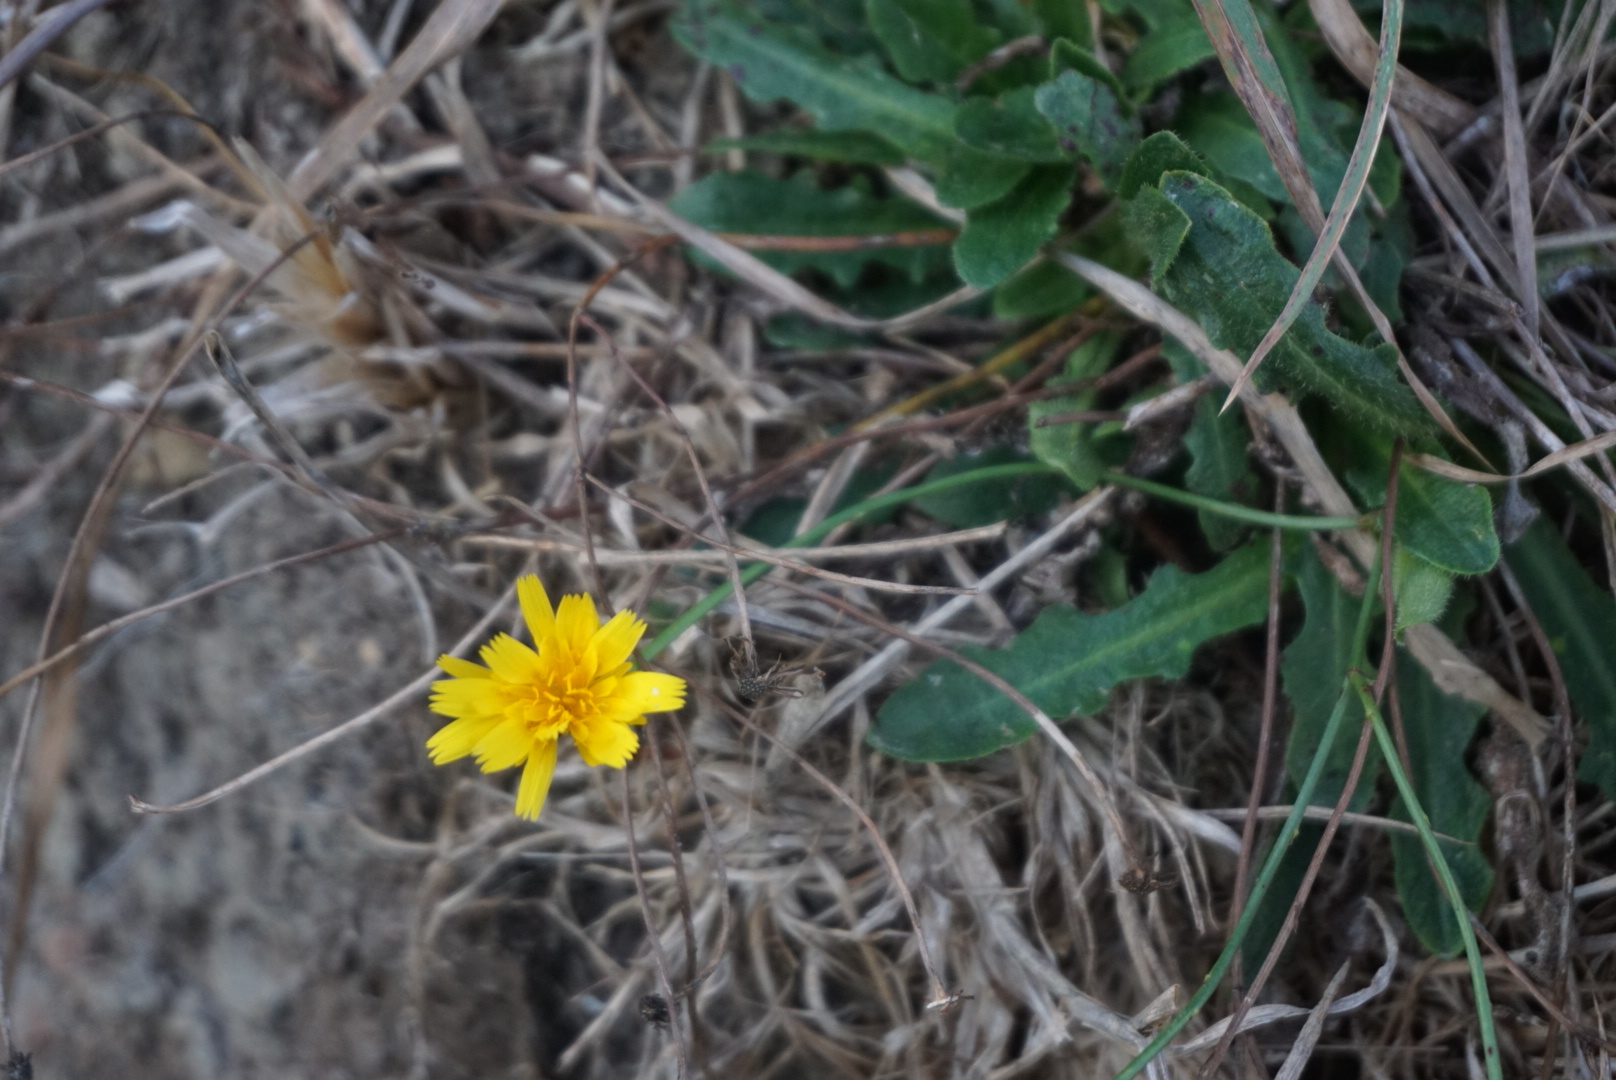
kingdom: Plantae
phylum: Tracheophyta
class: Magnoliopsida
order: Asterales
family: Asteraceae
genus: Hypochaeris
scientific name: Hypochaeris radicata
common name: Flatweed
